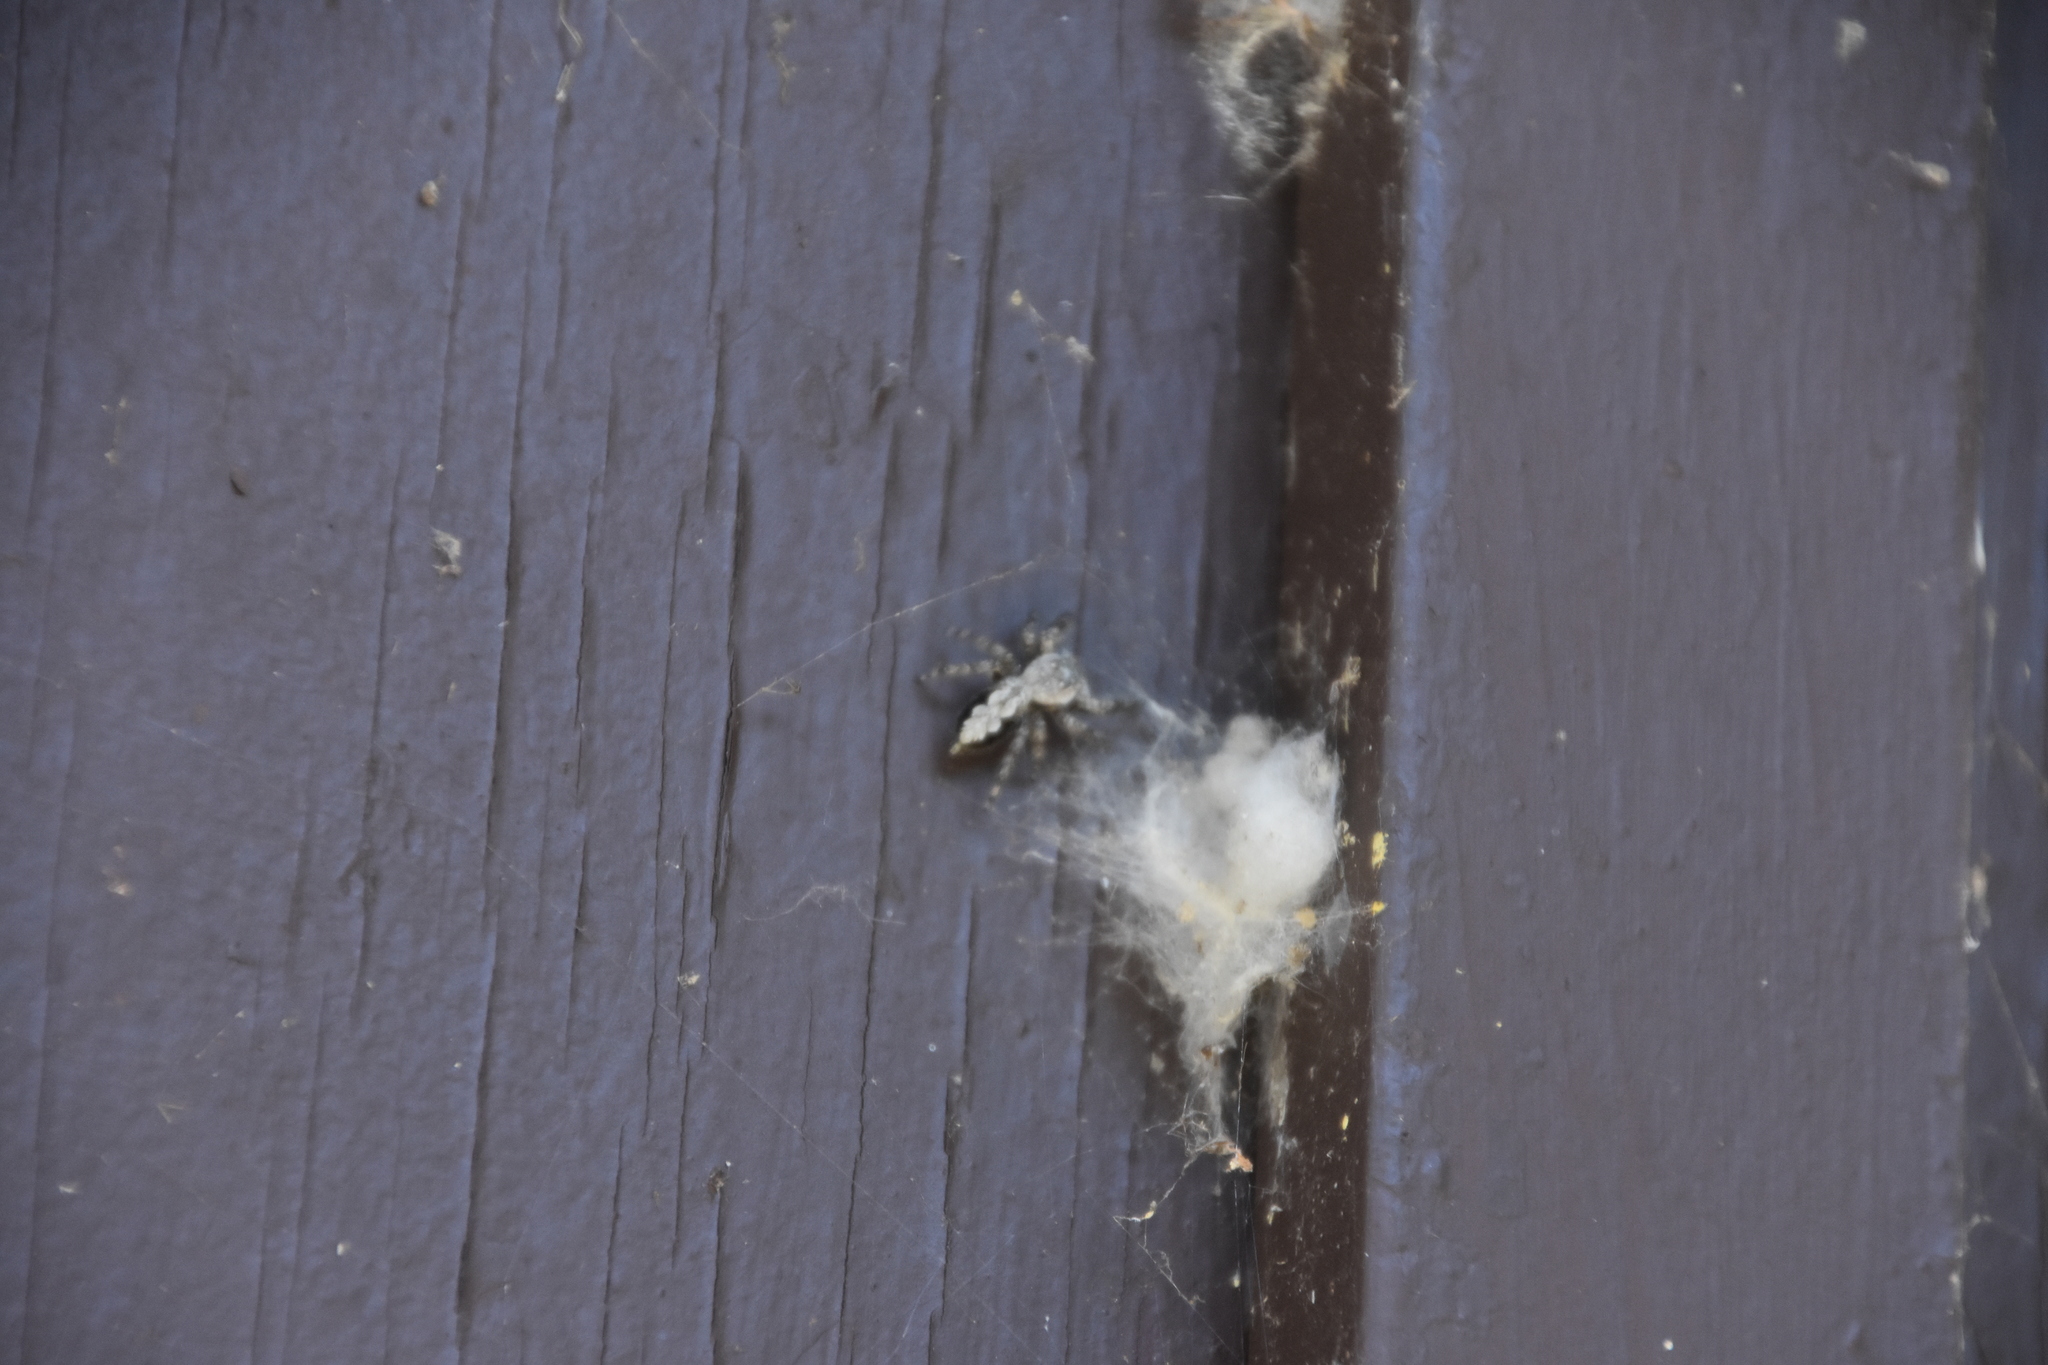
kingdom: Animalia
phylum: Arthropoda
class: Arachnida
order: Araneae
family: Salticidae
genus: Platycryptus
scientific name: Platycryptus undatus
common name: Tan jumping spider
